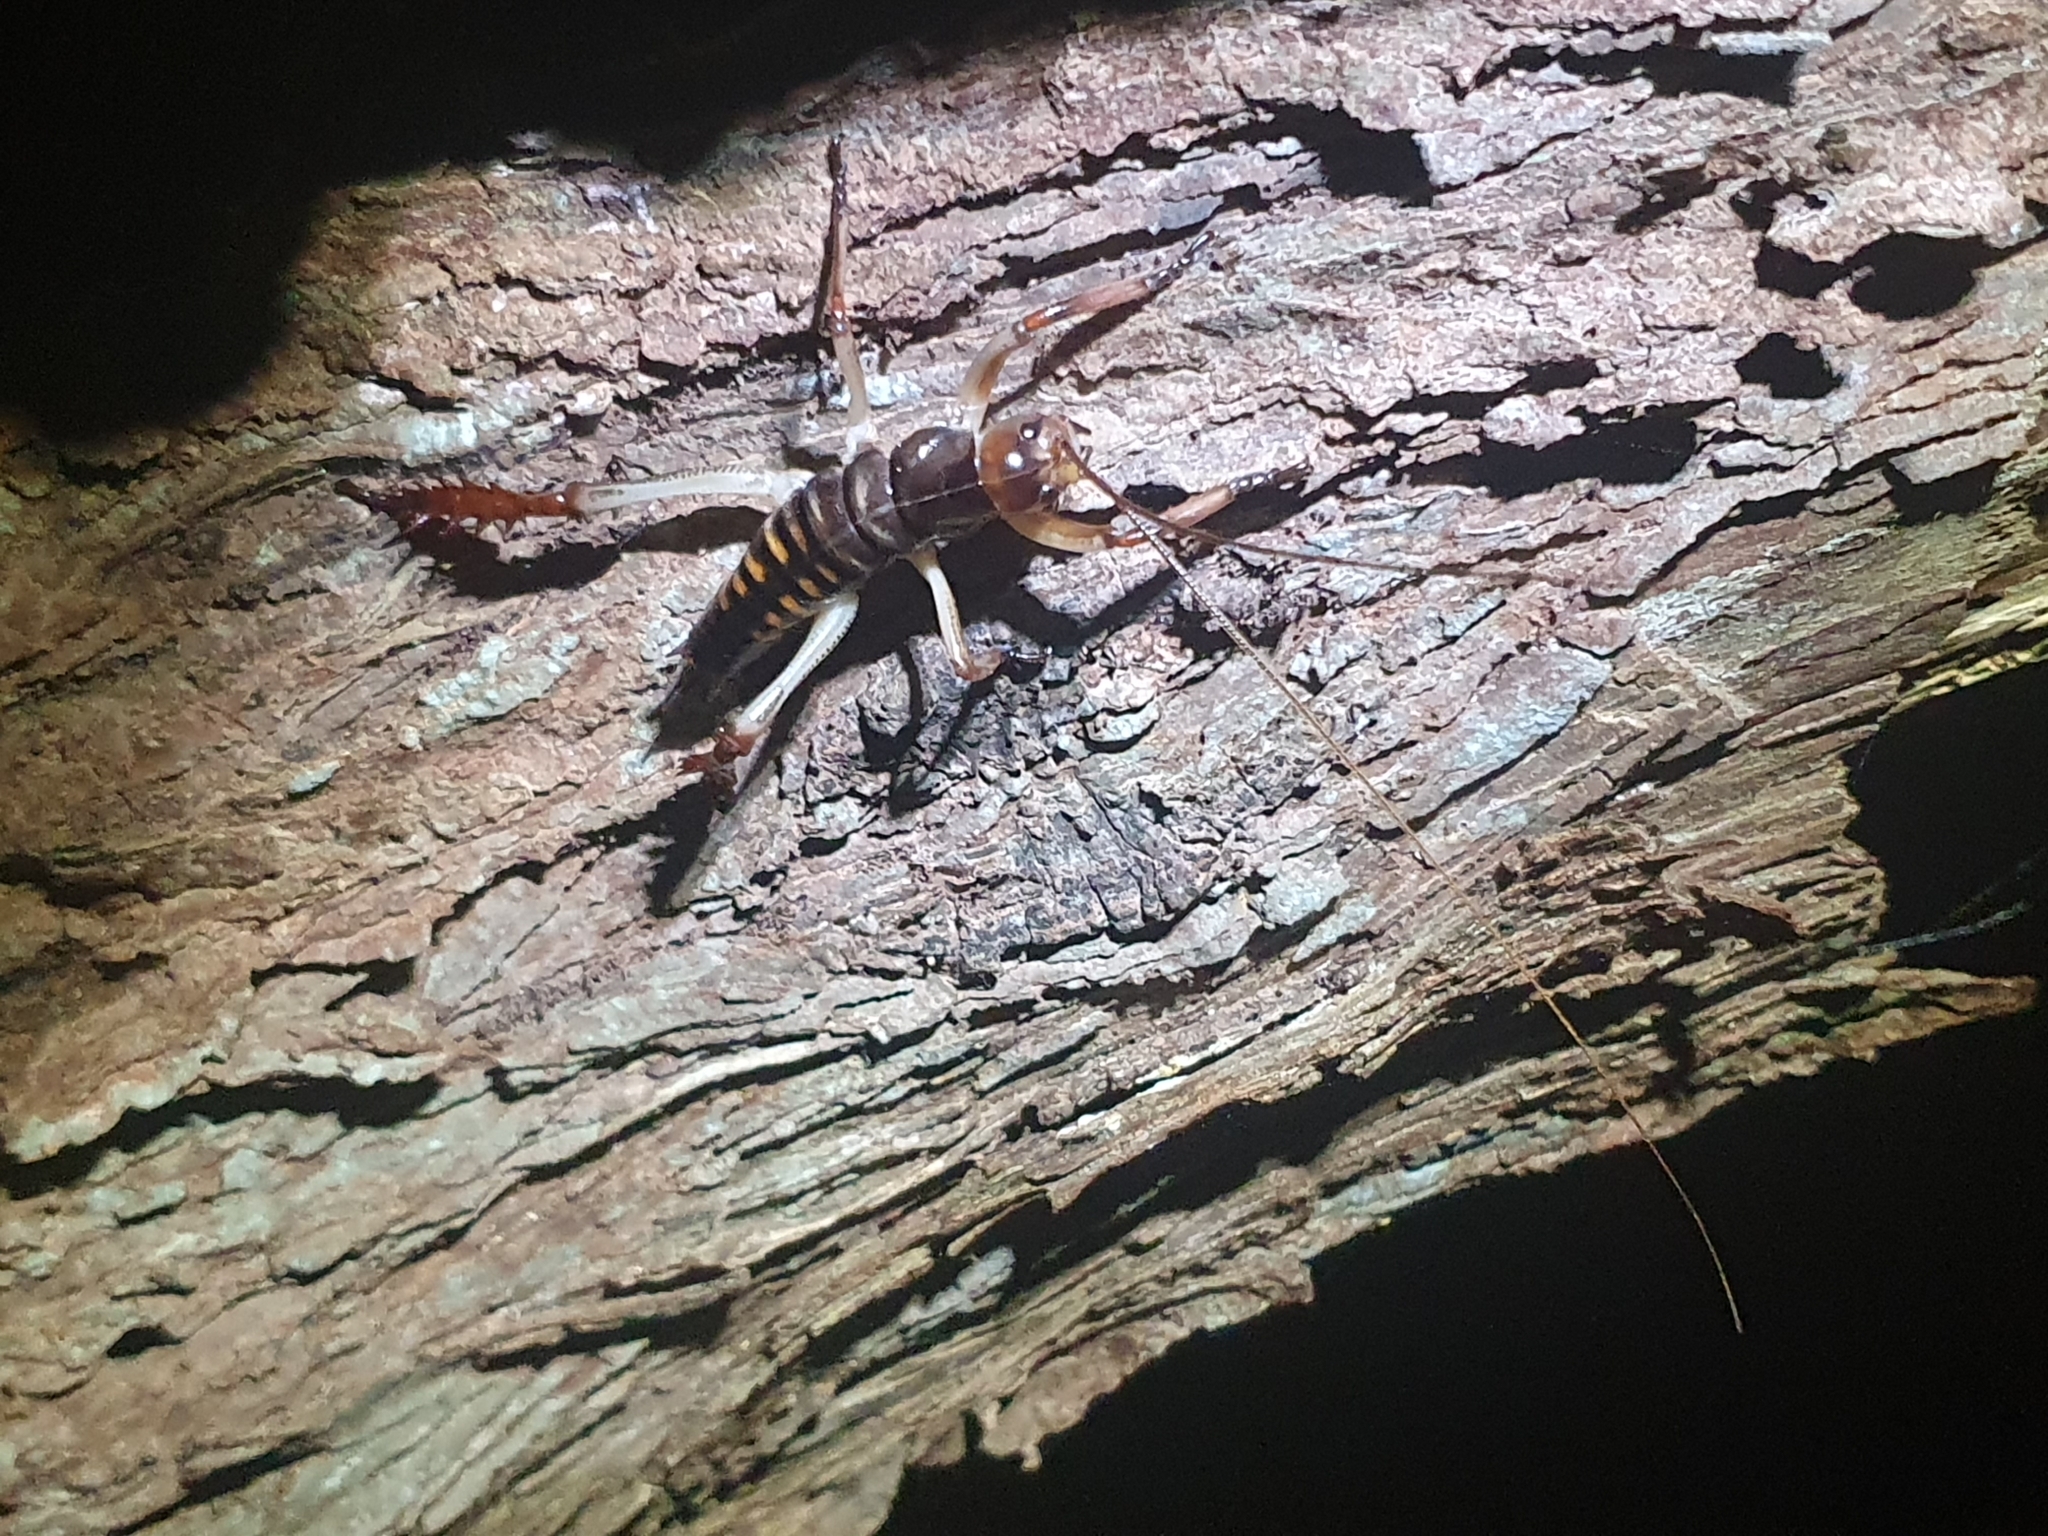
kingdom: Animalia
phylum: Arthropoda
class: Insecta
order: Orthoptera
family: Anostostomatidae
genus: Hemideina
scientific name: Hemideina crassidens
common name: Wellington tree weta
